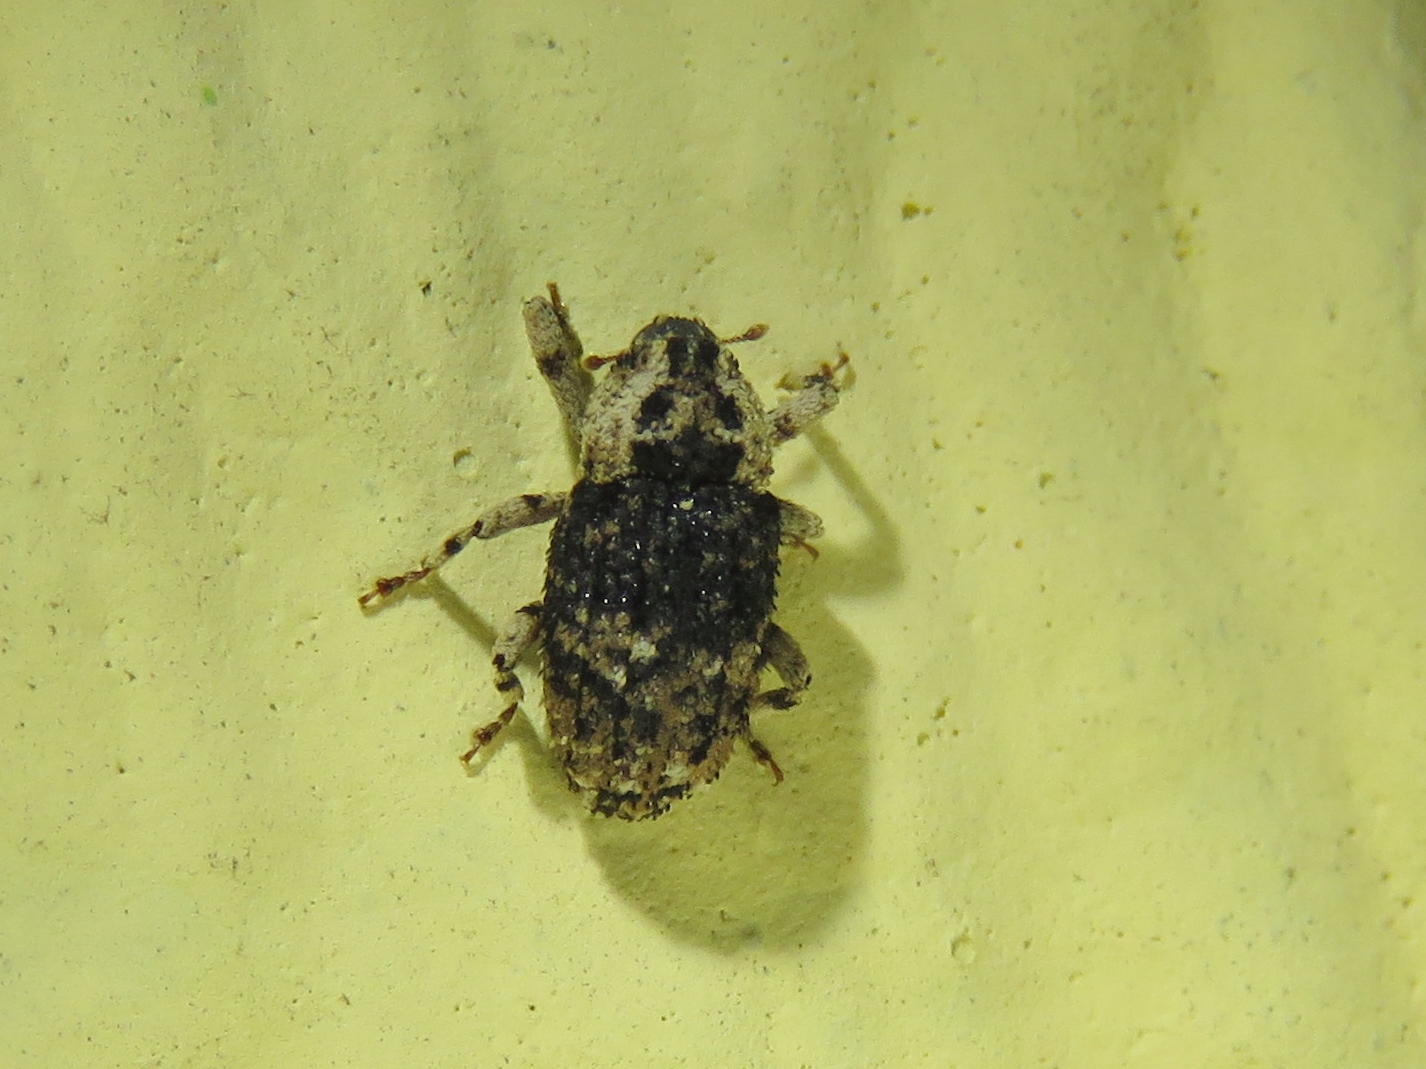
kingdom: Animalia
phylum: Arthropoda
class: Insecta
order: Coleoptera
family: Curculionidae
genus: Cophes
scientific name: Cophes fallax
